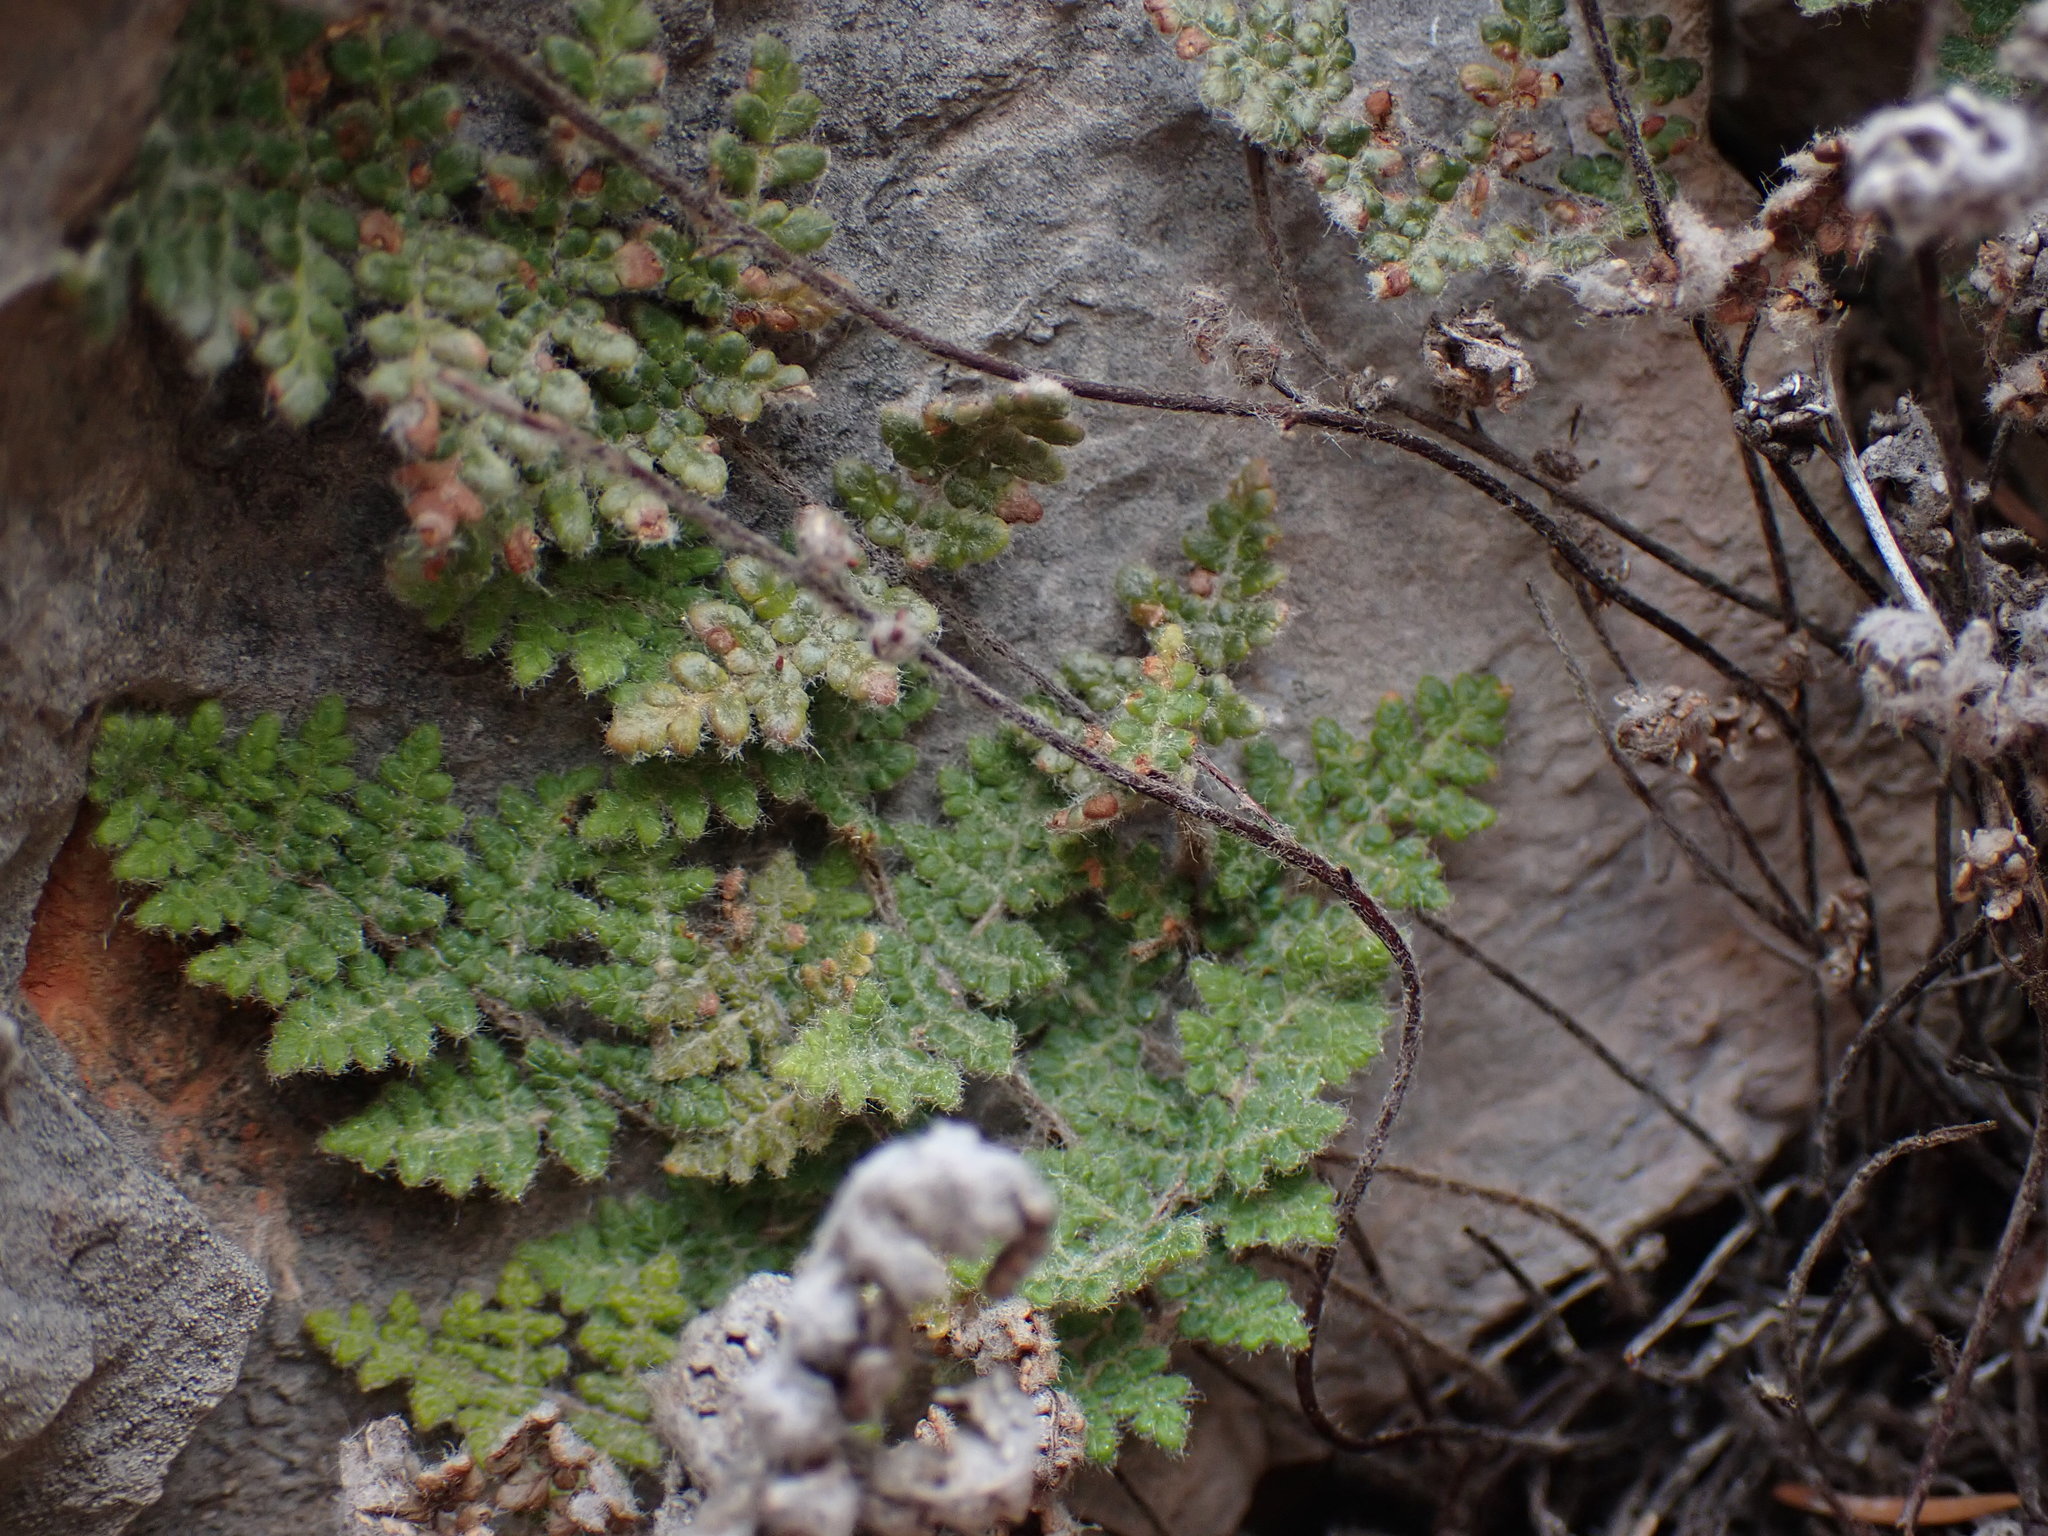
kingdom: Plantae
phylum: Tracheophyta
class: Polypodiopsida
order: Polypodiales
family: Pteridaceae
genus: Myriopteris
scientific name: Myriopteris gracilis
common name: Fee's lip fern
